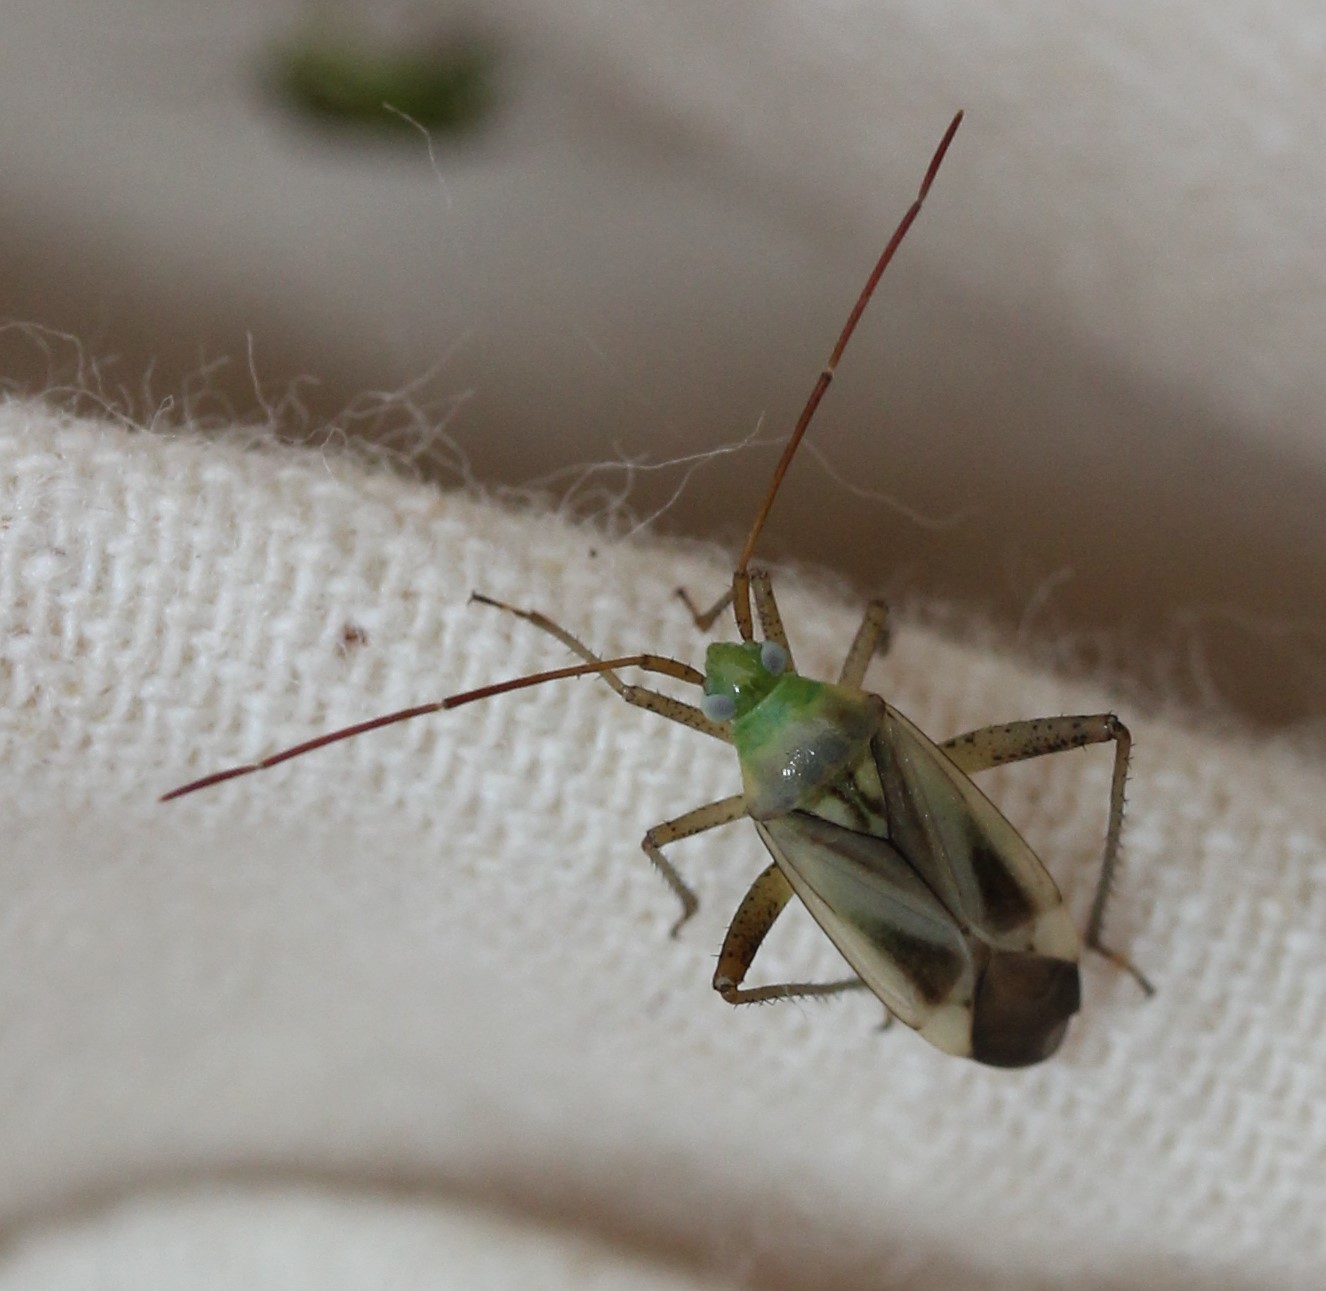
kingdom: Animalia
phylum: Arthropoda
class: Insecta
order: Hemiptera
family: Miridae
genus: Adelphocoris
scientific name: Adelphocoris lineolatus
